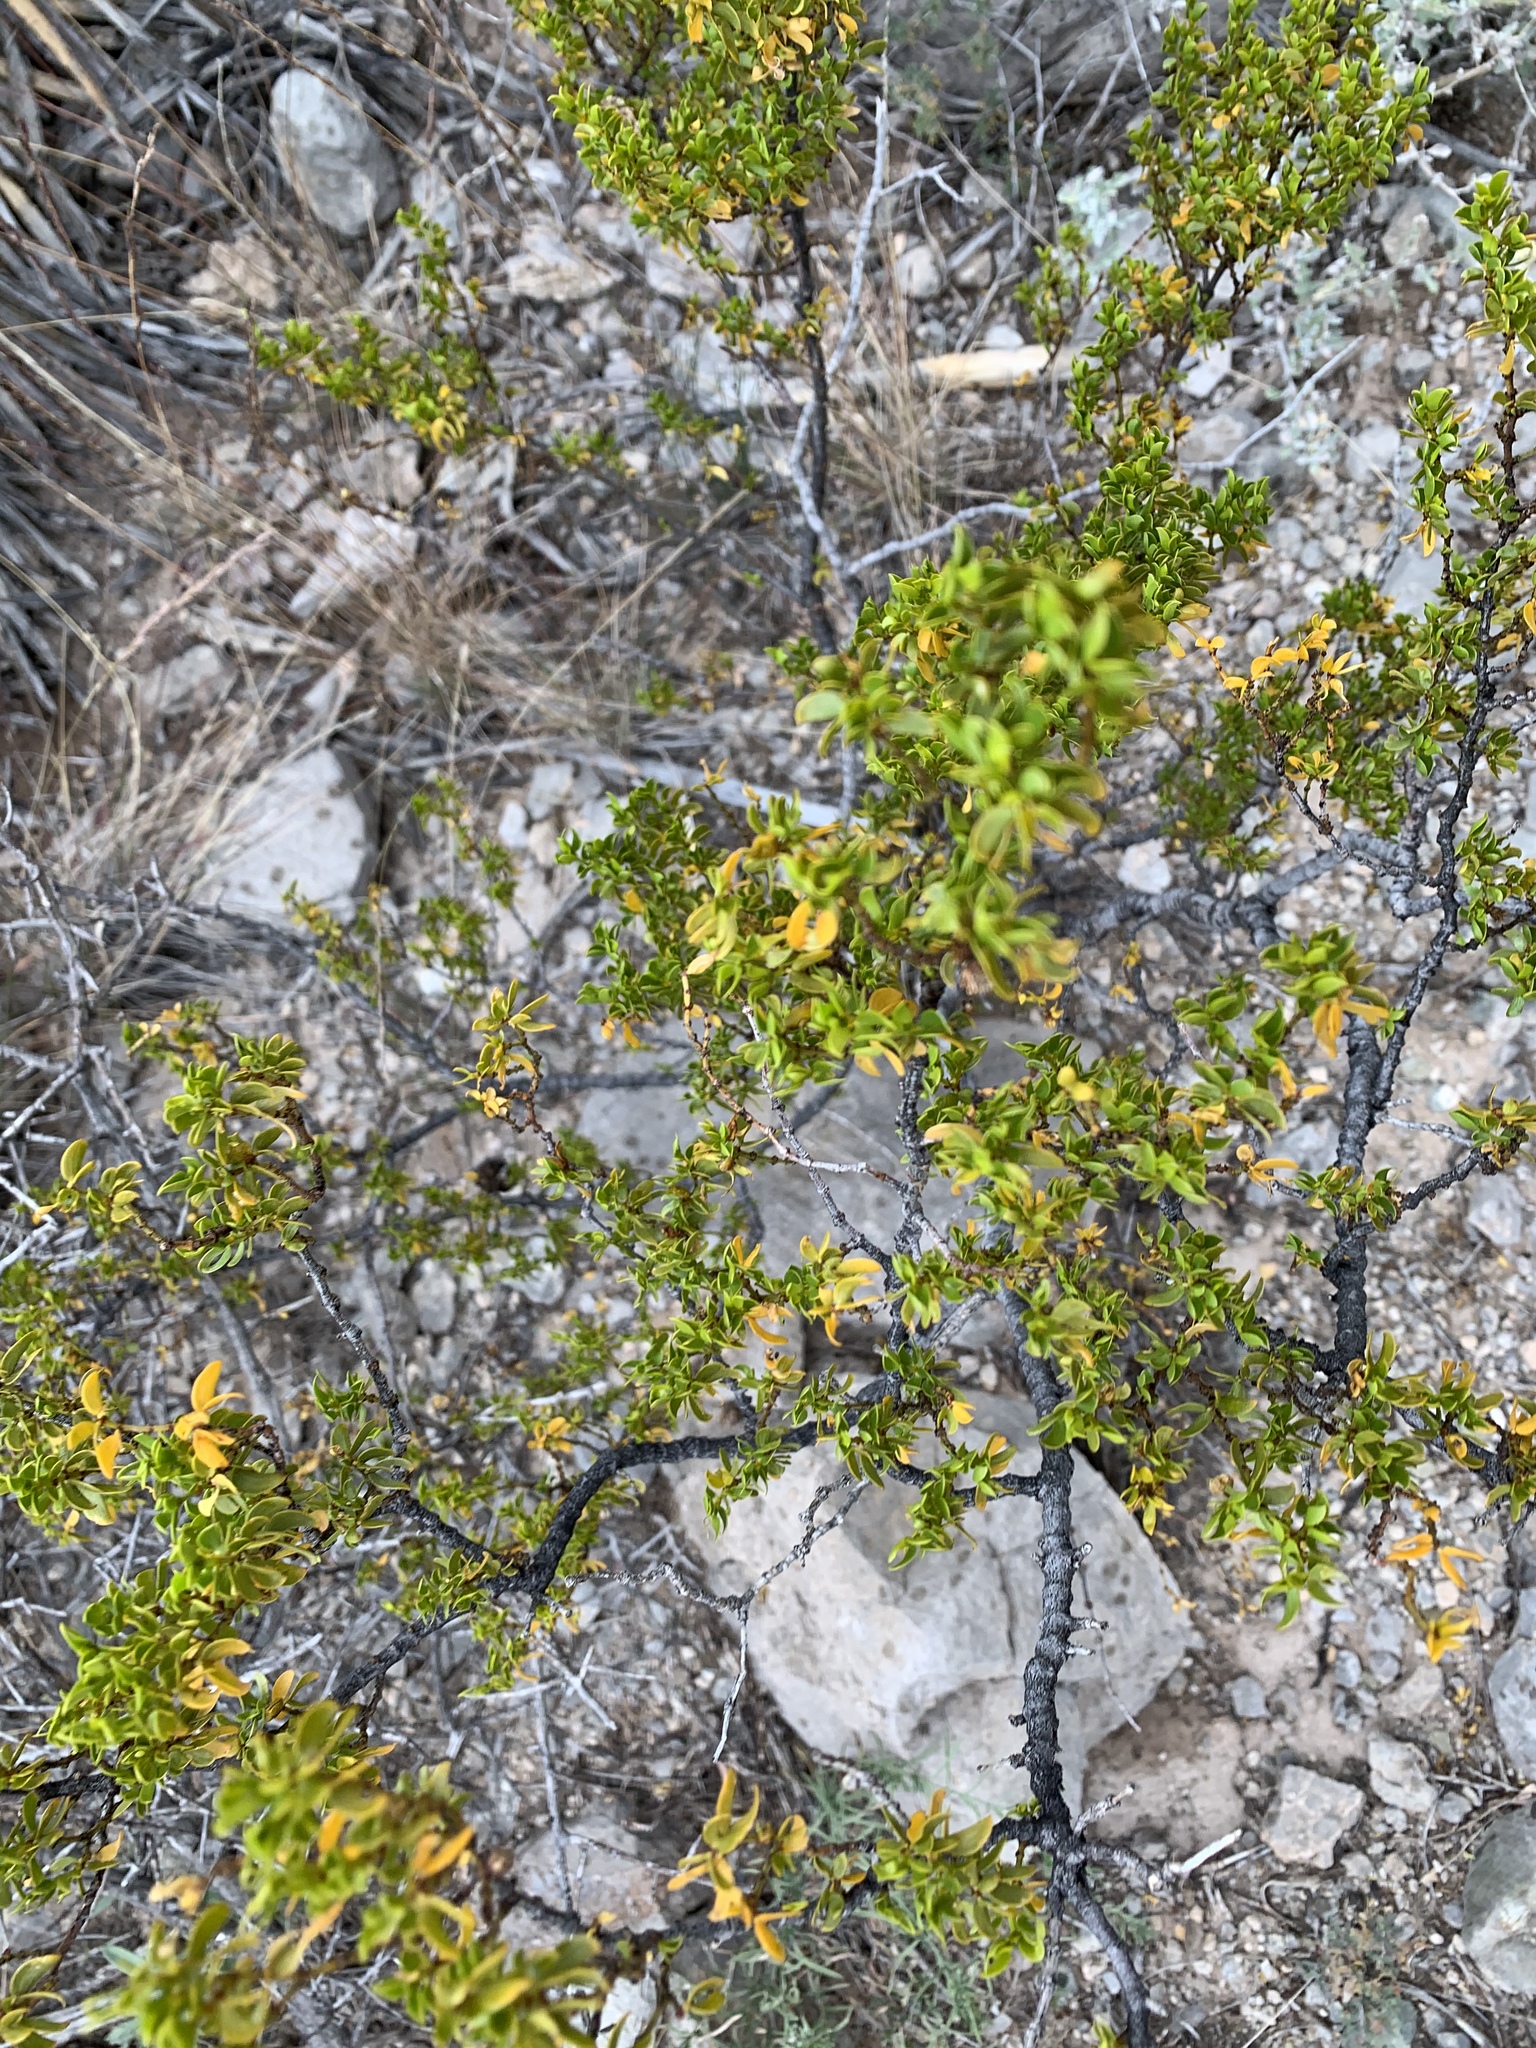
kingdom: Plantae
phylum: Tracheophyta
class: Magnoliopsida
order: Zygophyllales
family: Zygophyllaceae
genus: Larrea
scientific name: Larrea tridentata
